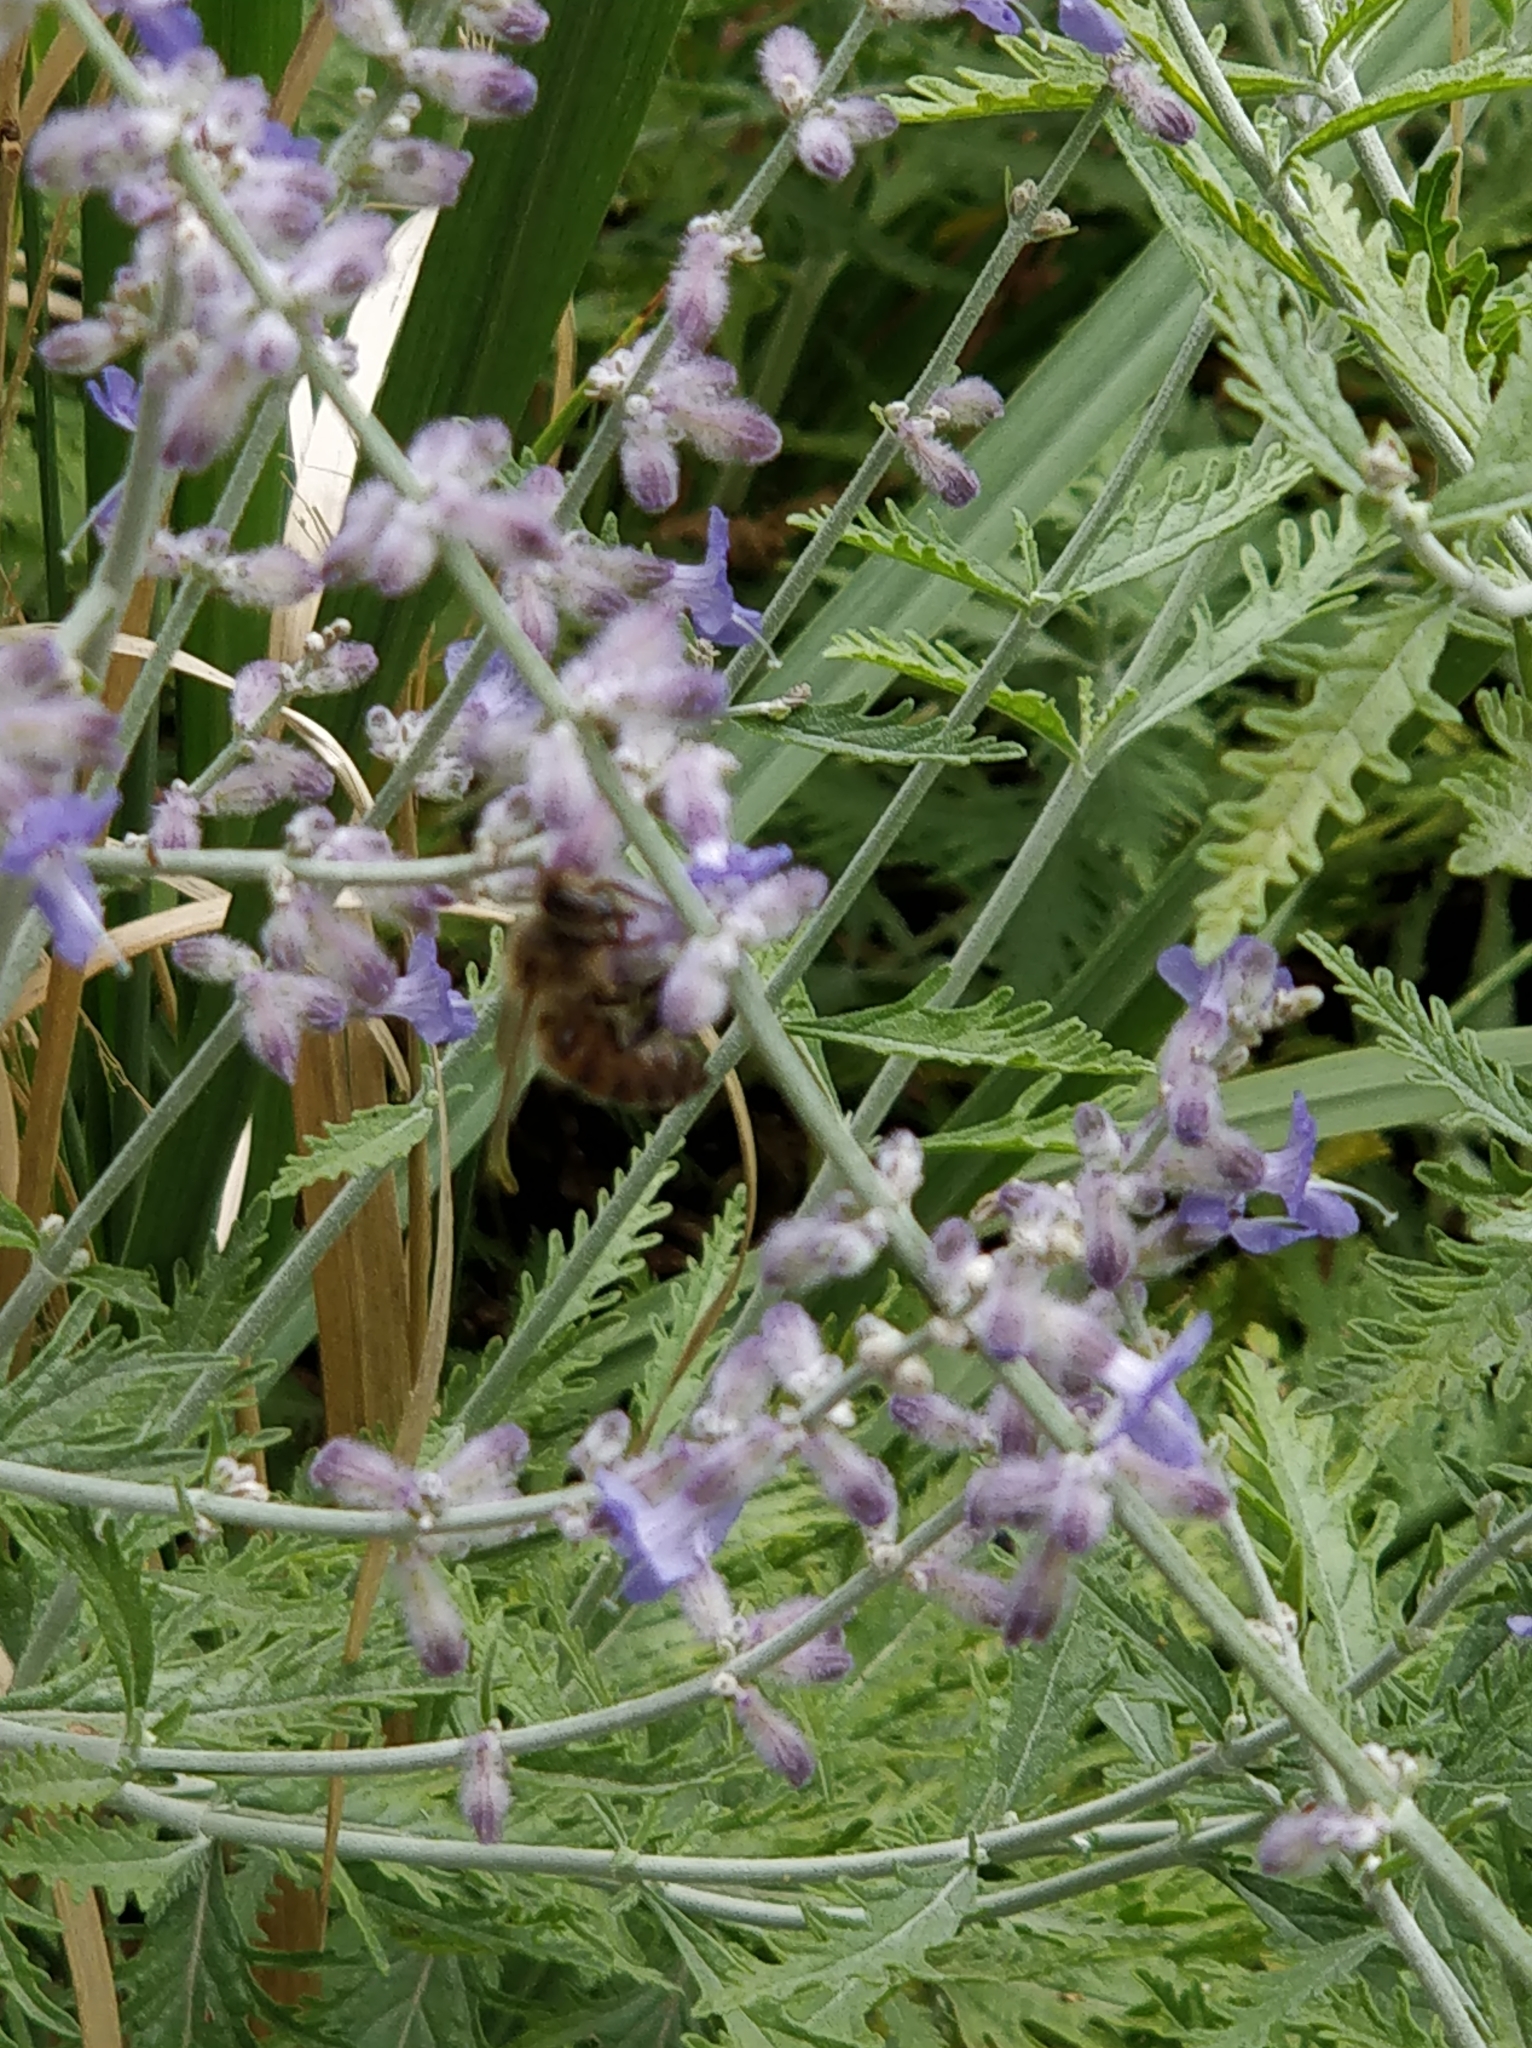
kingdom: Animalia
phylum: Arthropoda
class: Insecta
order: Hymenoptera
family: Apidae
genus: Apis
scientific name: Apis mellifera
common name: Honey bee
